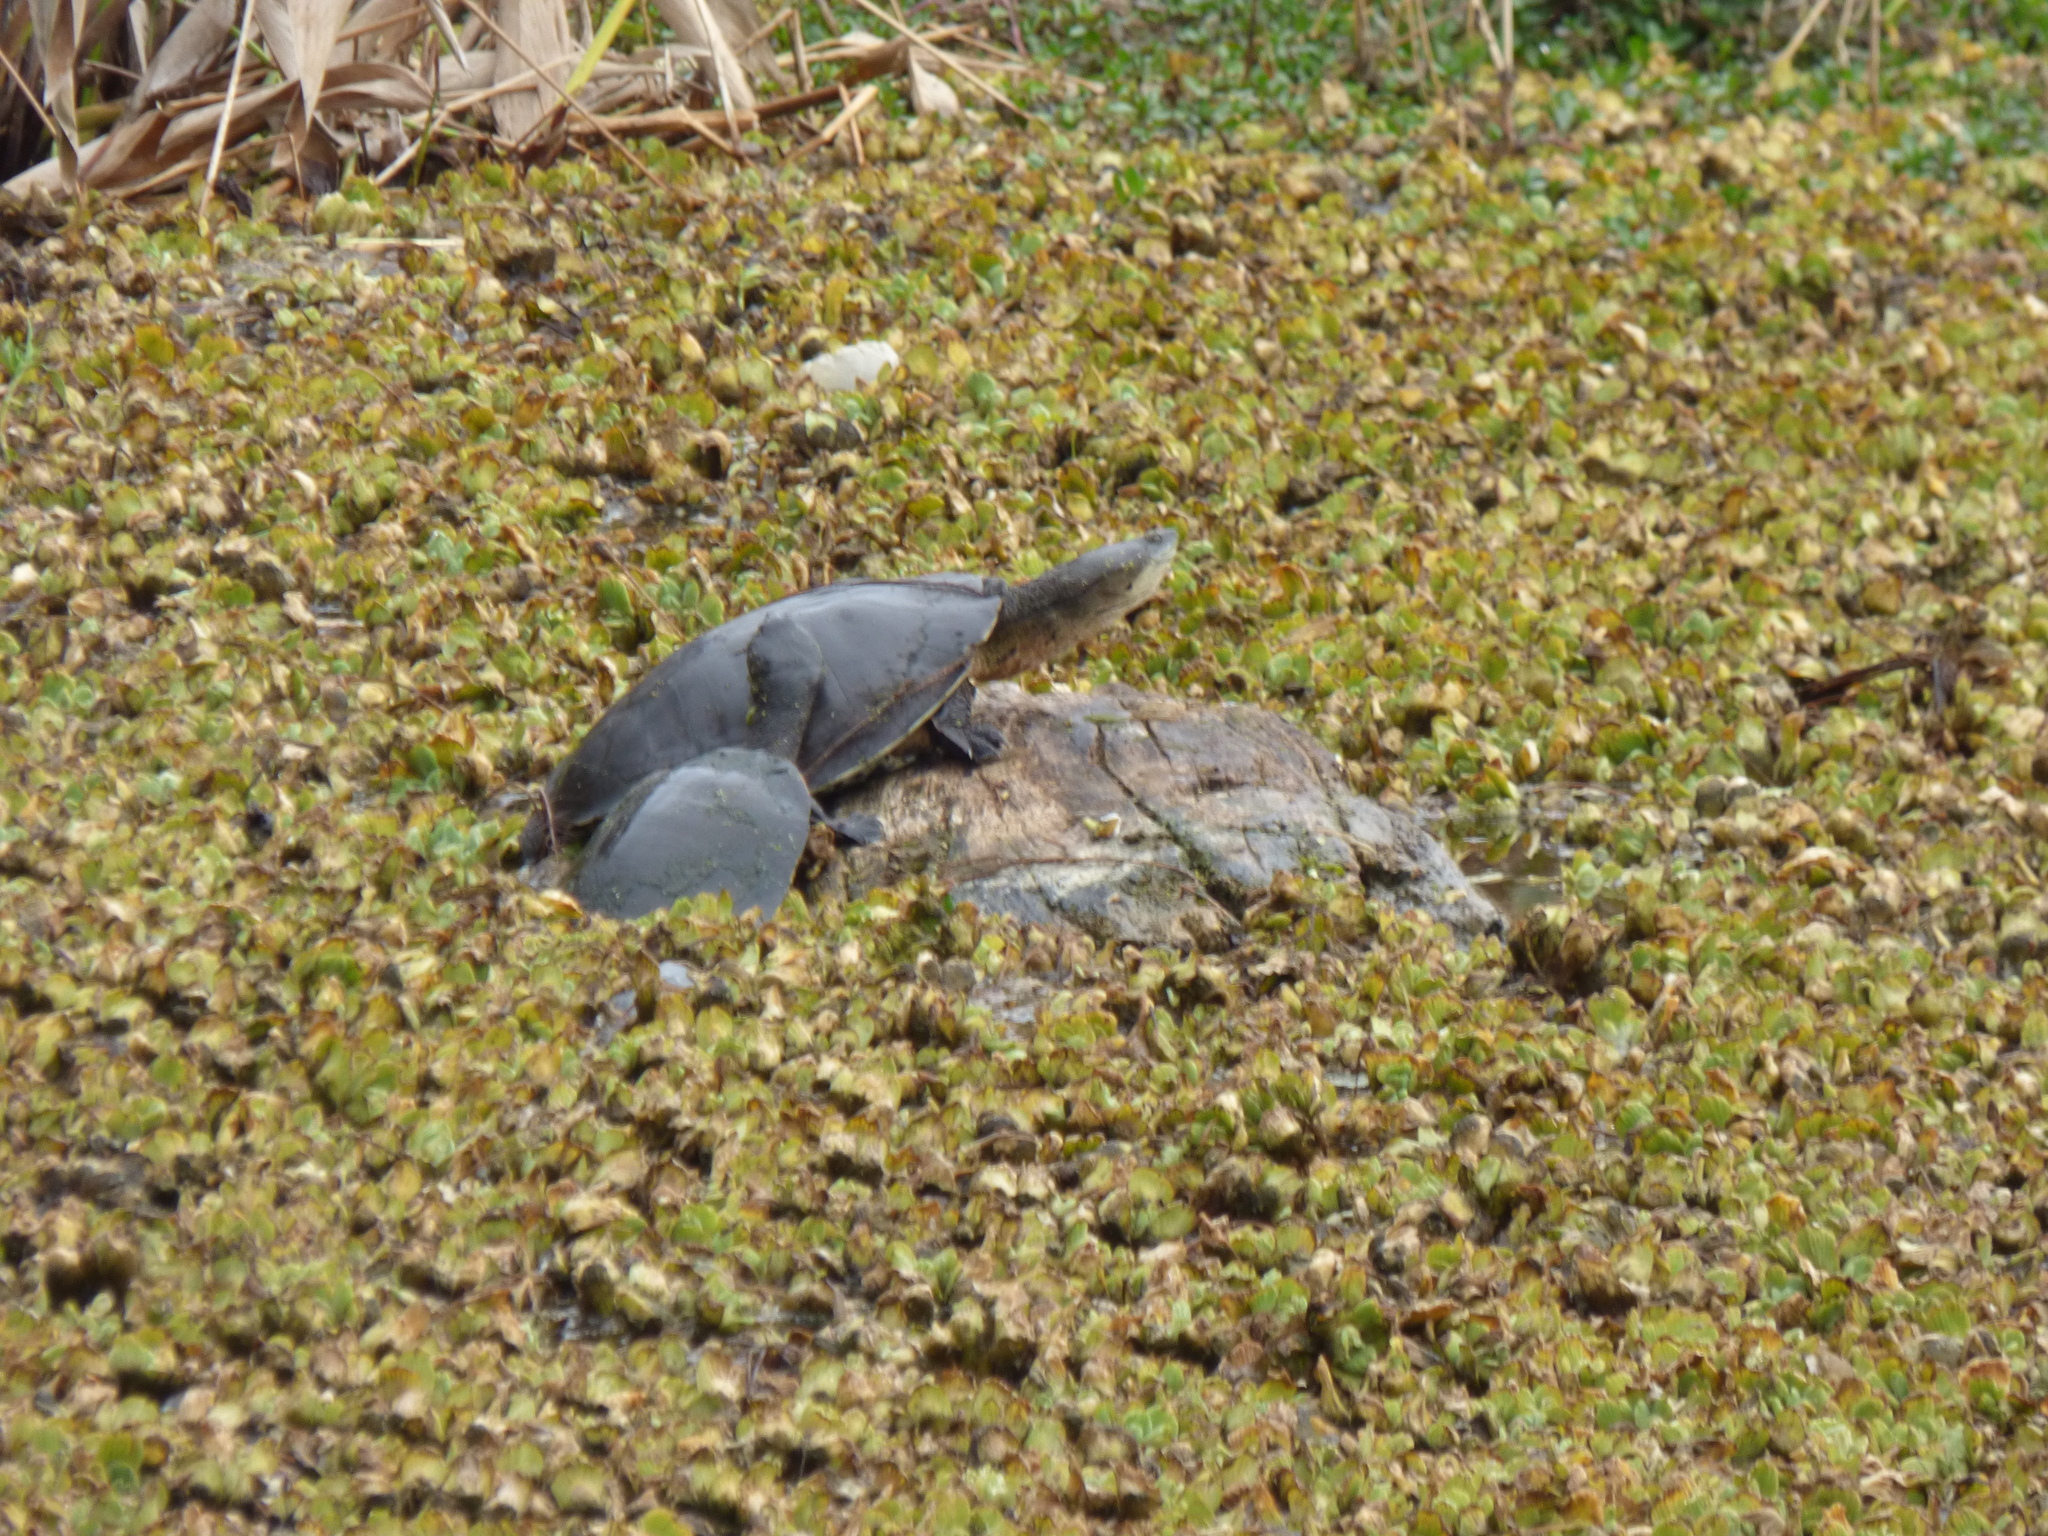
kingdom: Animalia
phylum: Chordata
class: Testudines
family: Chelidae
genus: Phrynops
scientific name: Phrynops hilarii
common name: Side-necked turtle of saint hillaire
